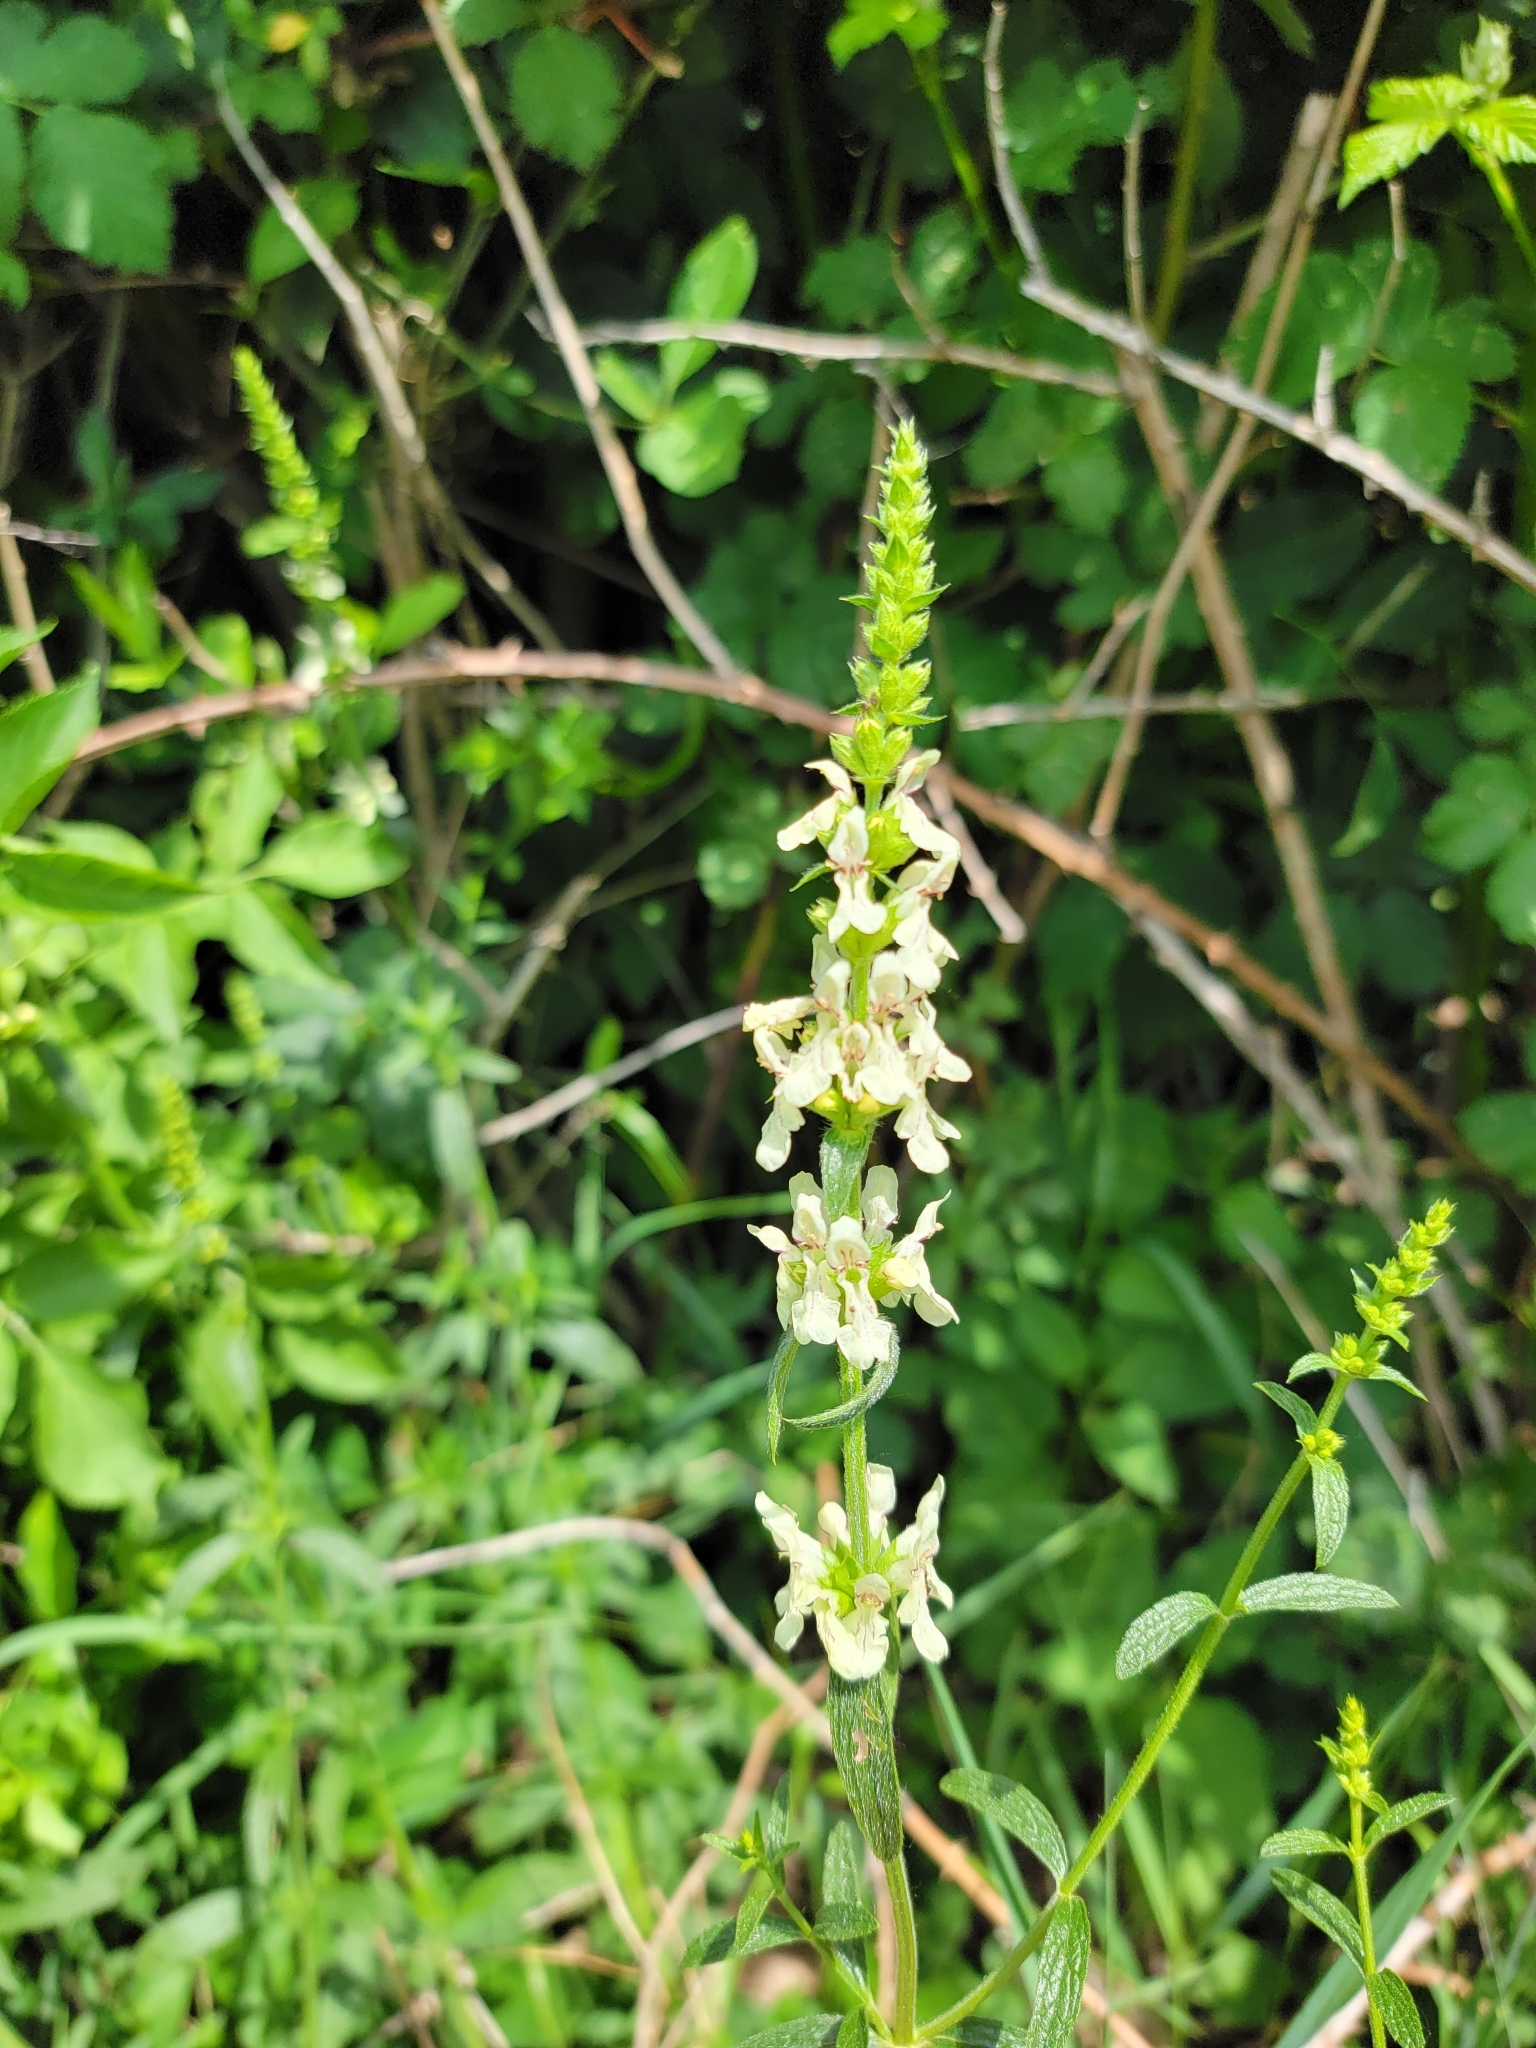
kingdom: Plantae
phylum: Tracheophyta
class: Magnoliopsida
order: Lamiales
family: Lamiaceae
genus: Stachys
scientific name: Stachys recta
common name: Perennial yellow-woundwort
